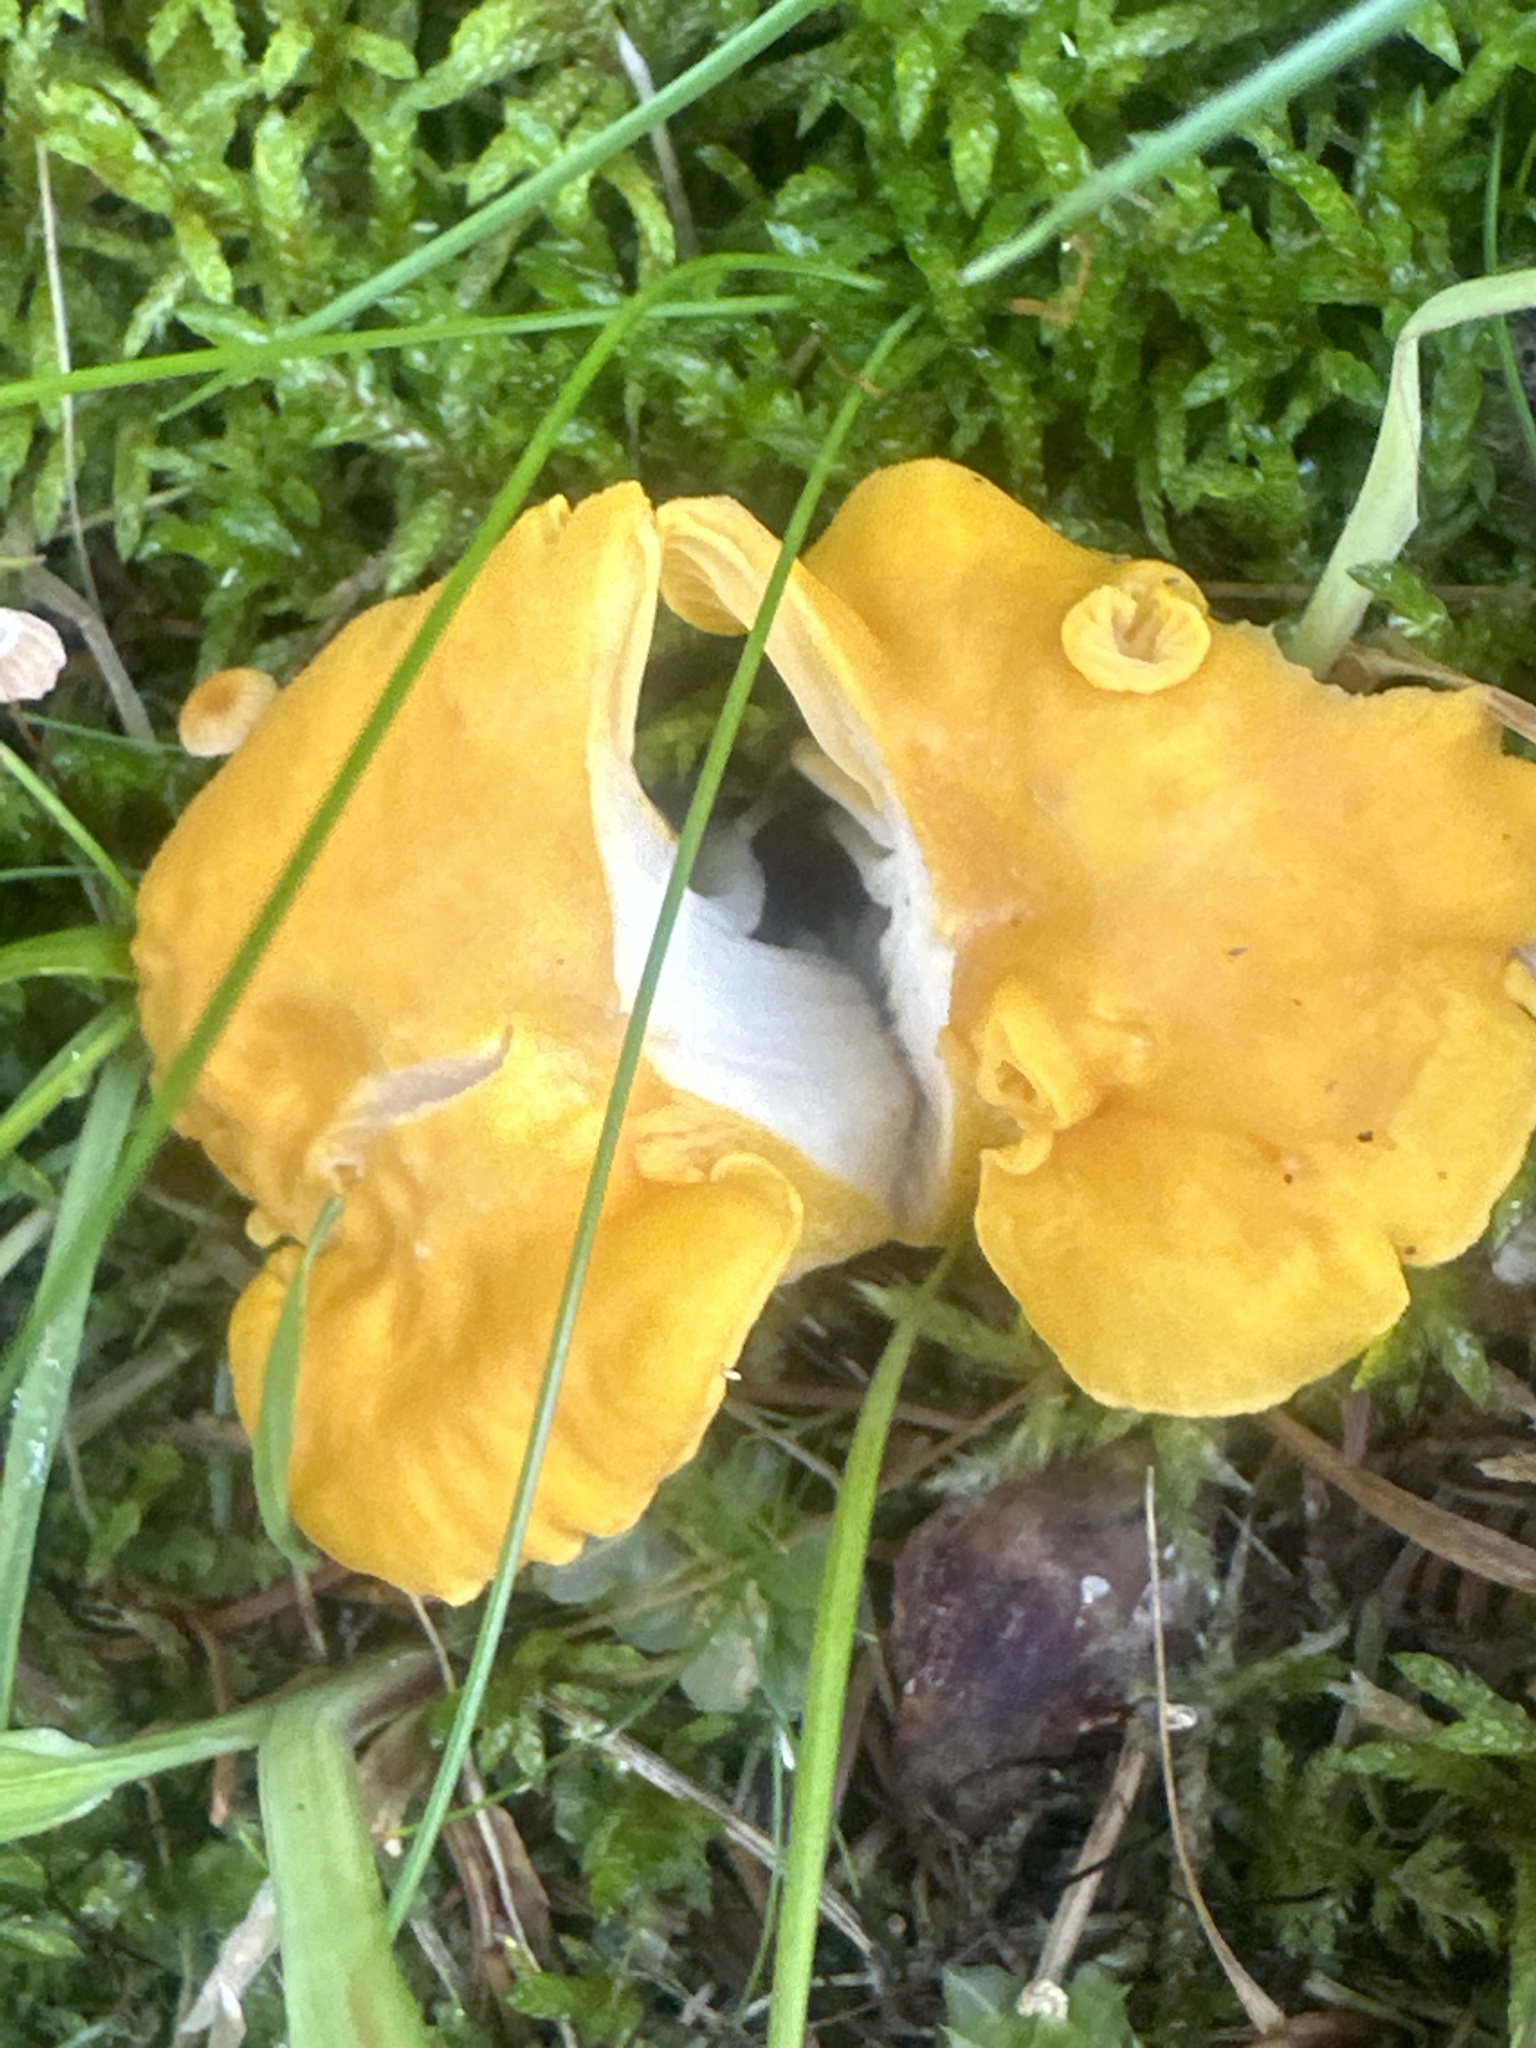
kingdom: Fungi
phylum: Basidiomycota
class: Agaricomycetes
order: Cantharellales
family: Hydnaceae
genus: Cantharellus
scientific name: Cantharellus cibarius
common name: Chanterelle
